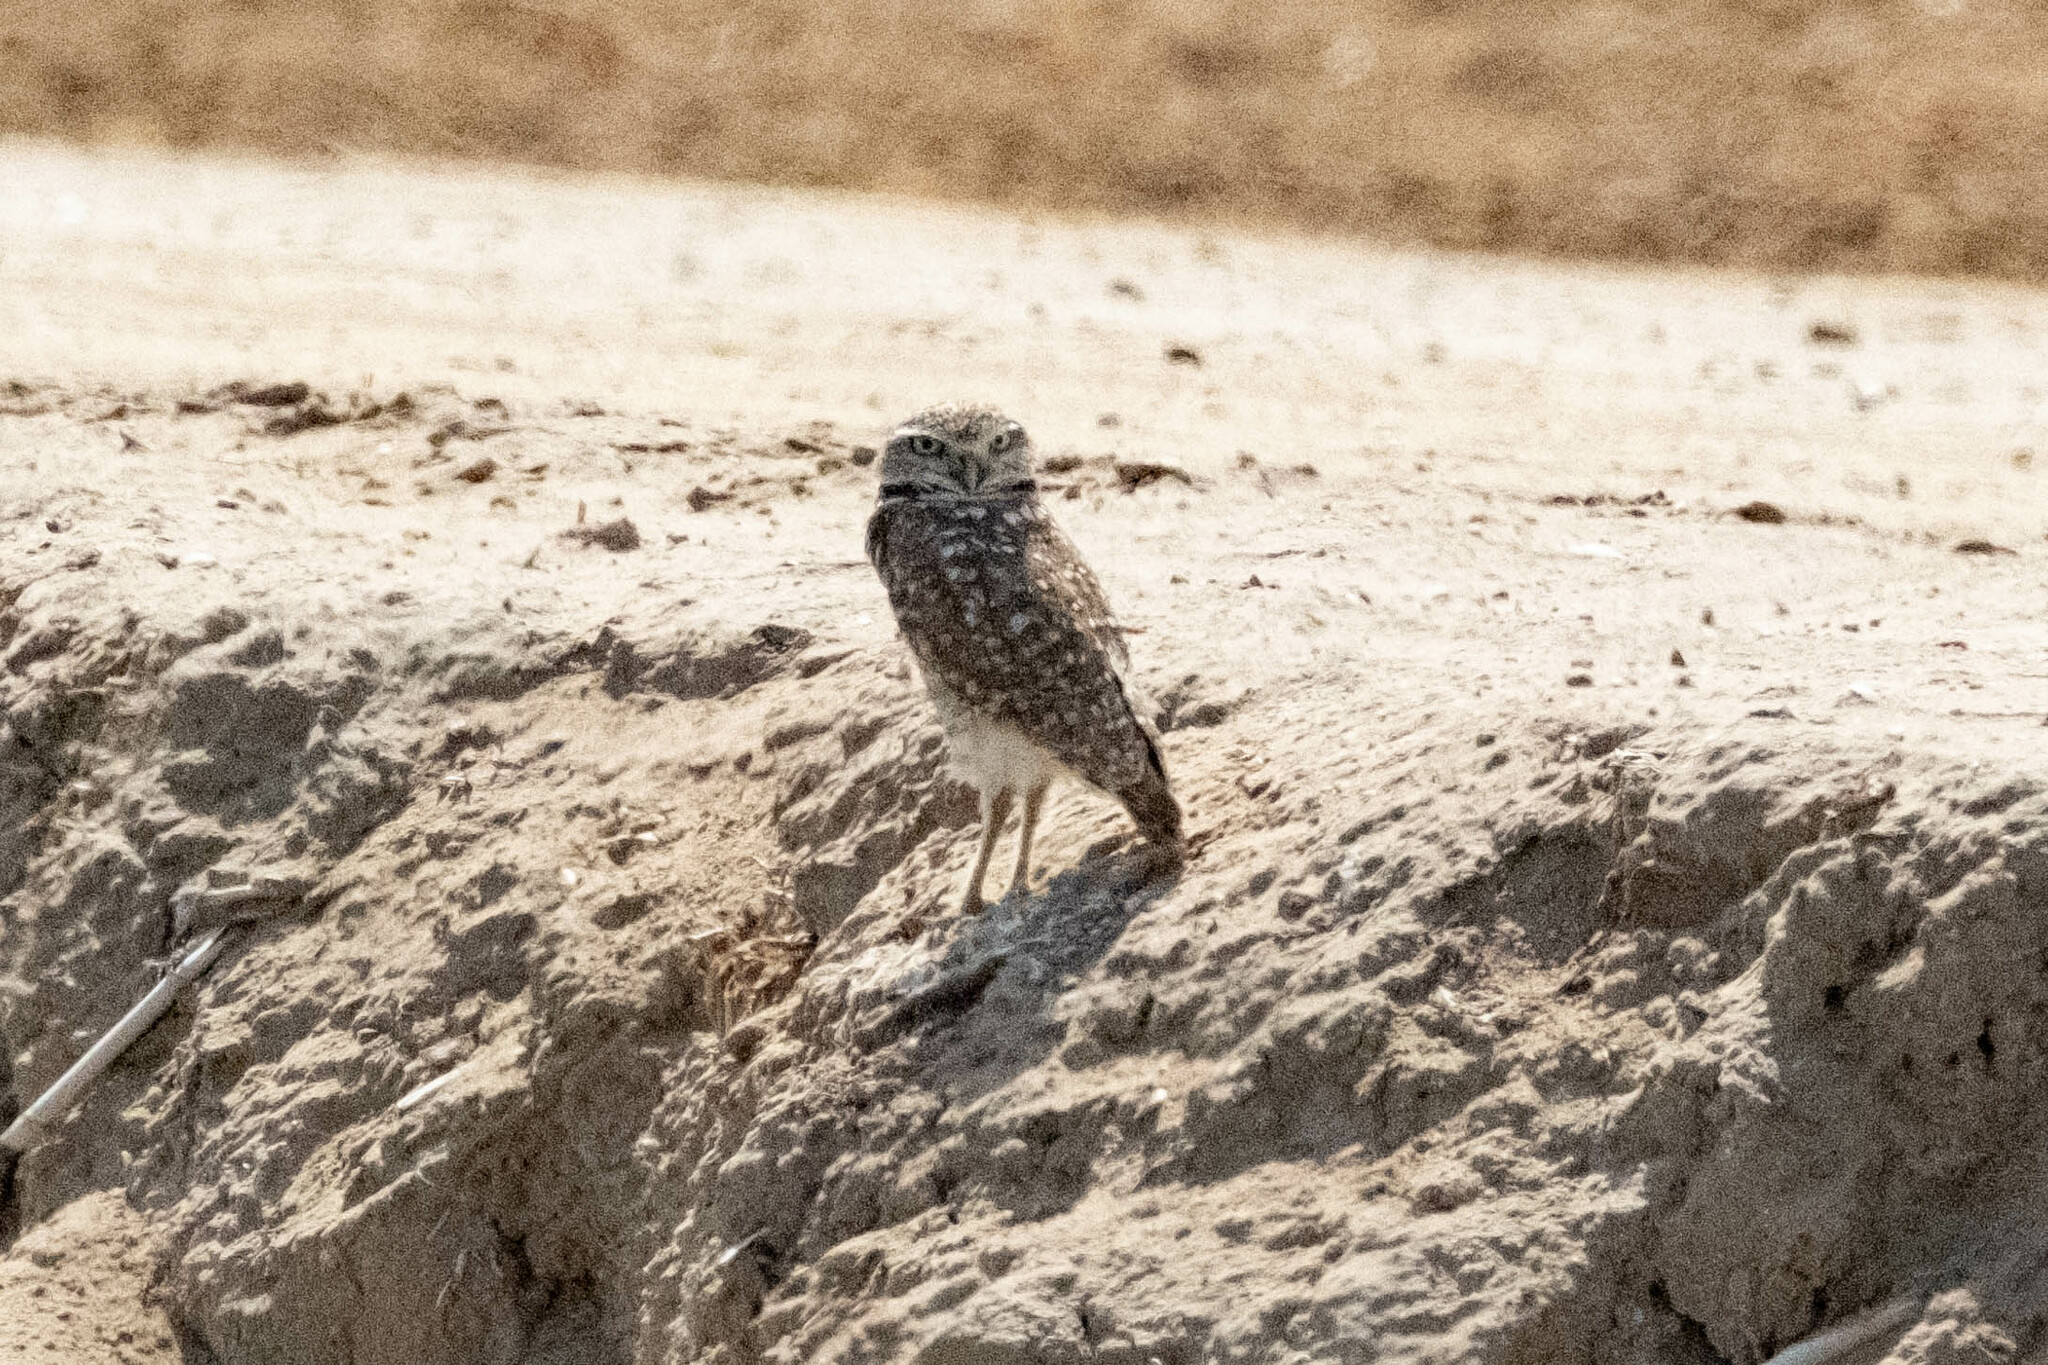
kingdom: Animalia
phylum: Chordata
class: Aves
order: Strigiformes
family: Strigidae
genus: Athene
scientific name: Athene cunicularia
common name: Burrowing owl
